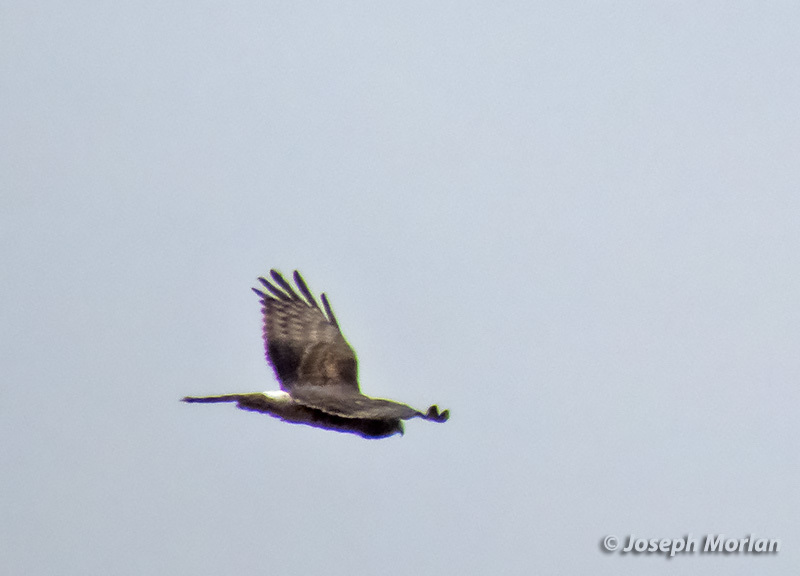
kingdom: Animalia
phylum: Chordata
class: Aves
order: Accipitriformes
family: Accipitridae
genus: Circus
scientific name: Circus cyaneus
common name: Hen harrier
